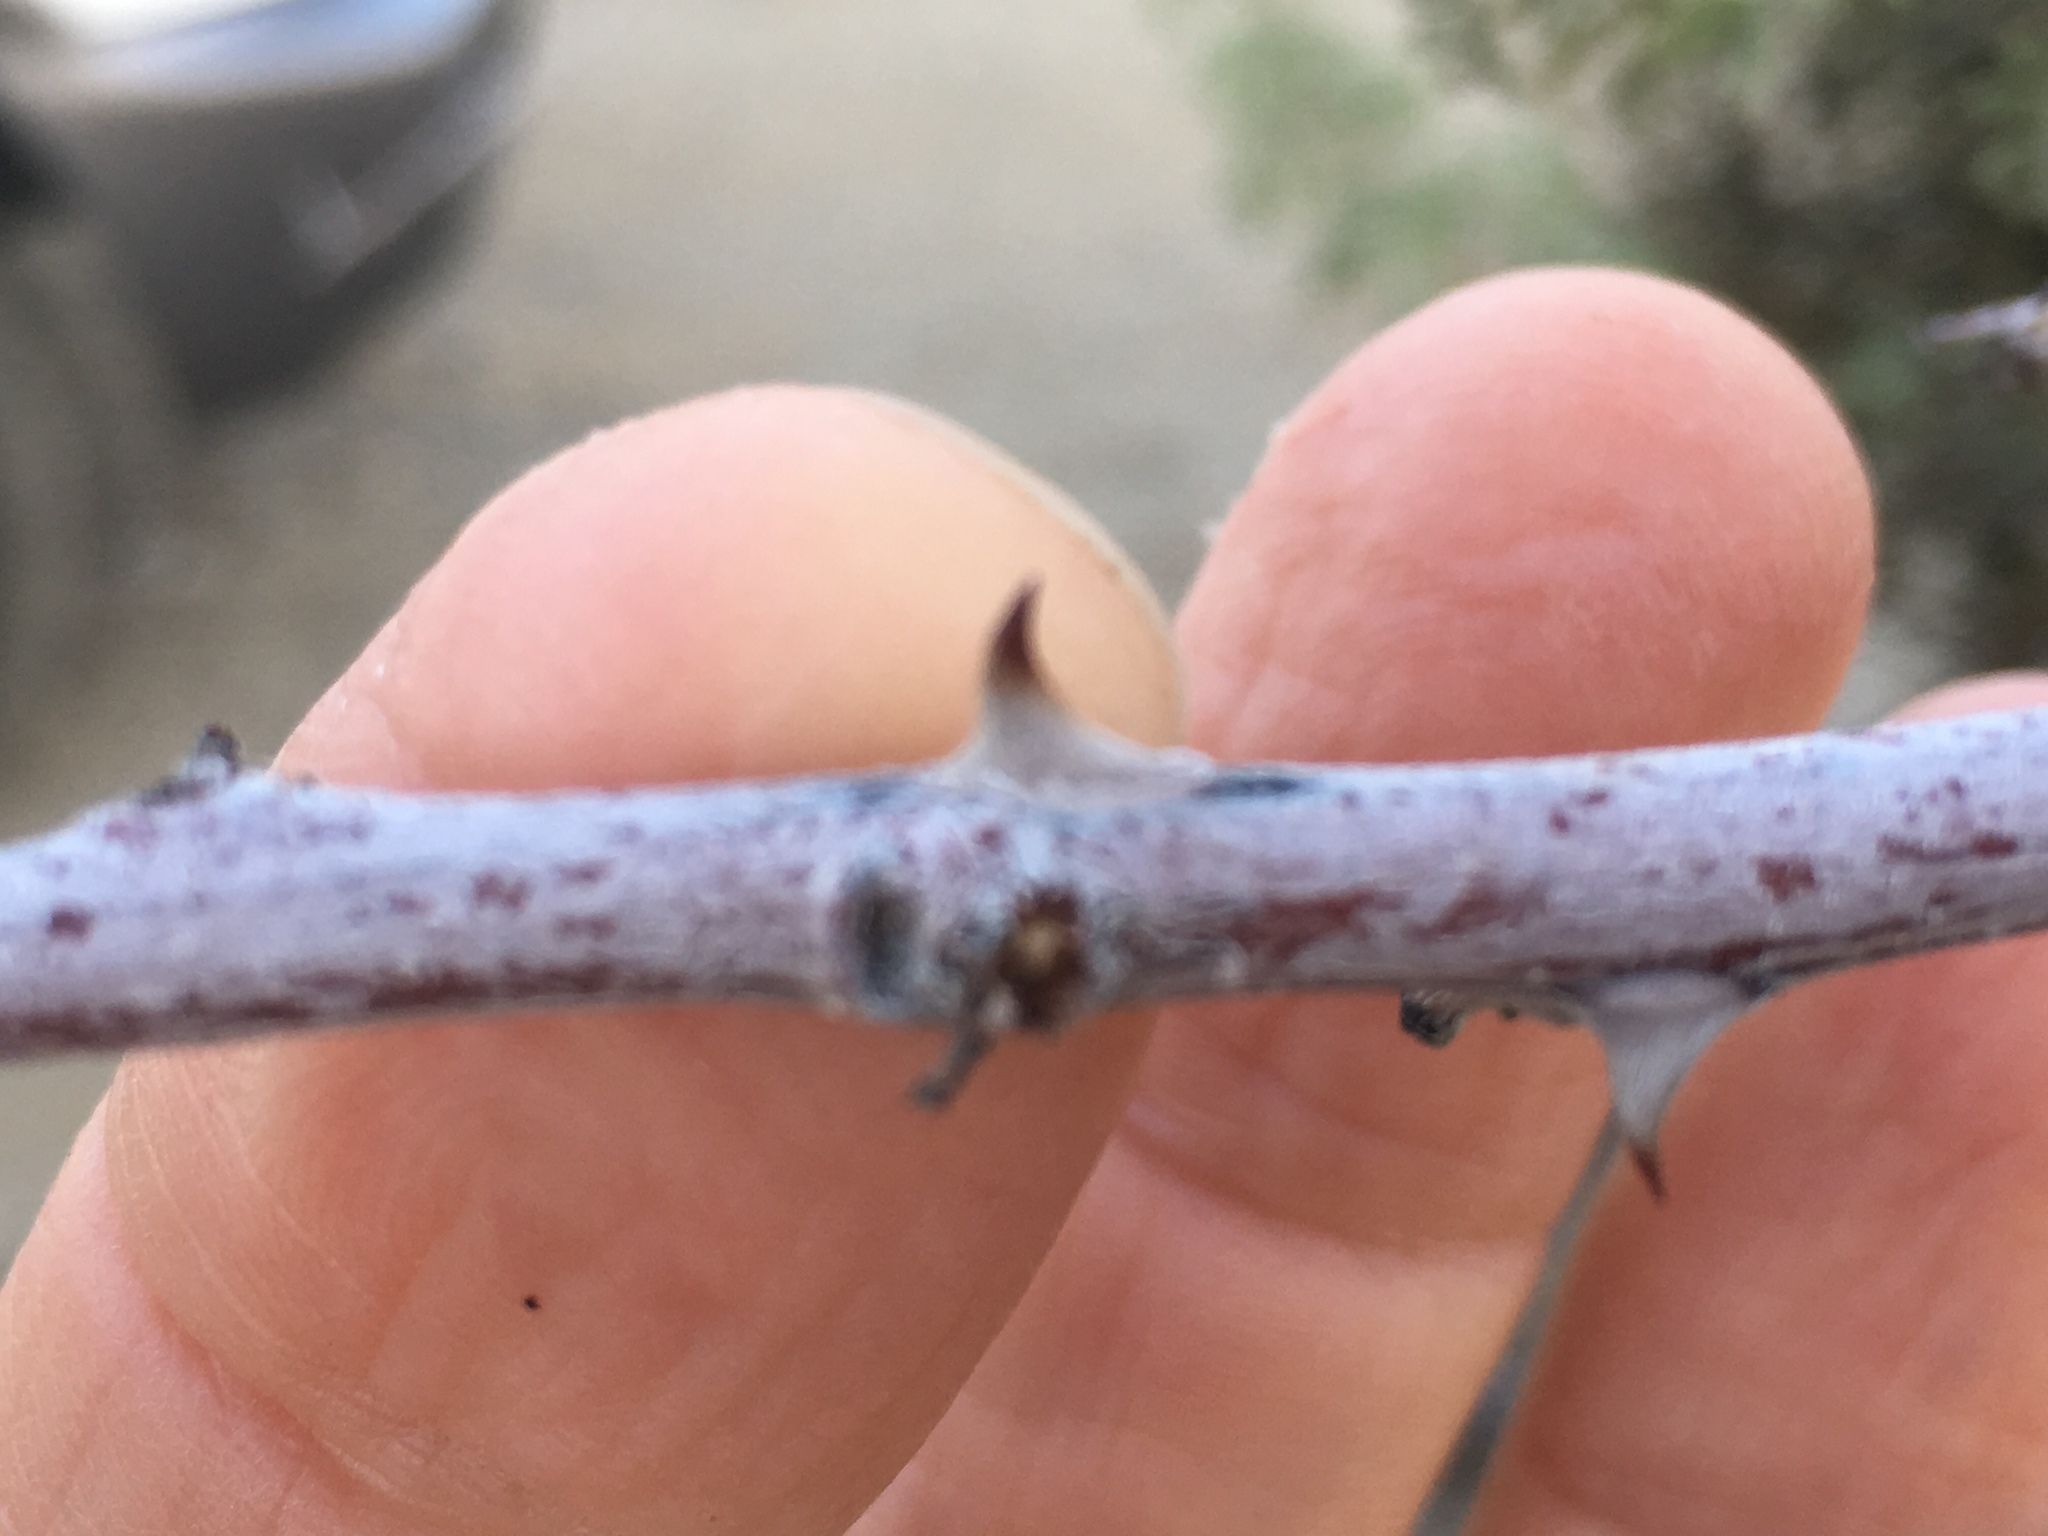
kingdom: Plantae
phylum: Tracheophyta
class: Magnoliopsida
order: Fabales
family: Fabaceae
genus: Senegalia
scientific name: Senegalia greggii
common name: Texas-mimosa
